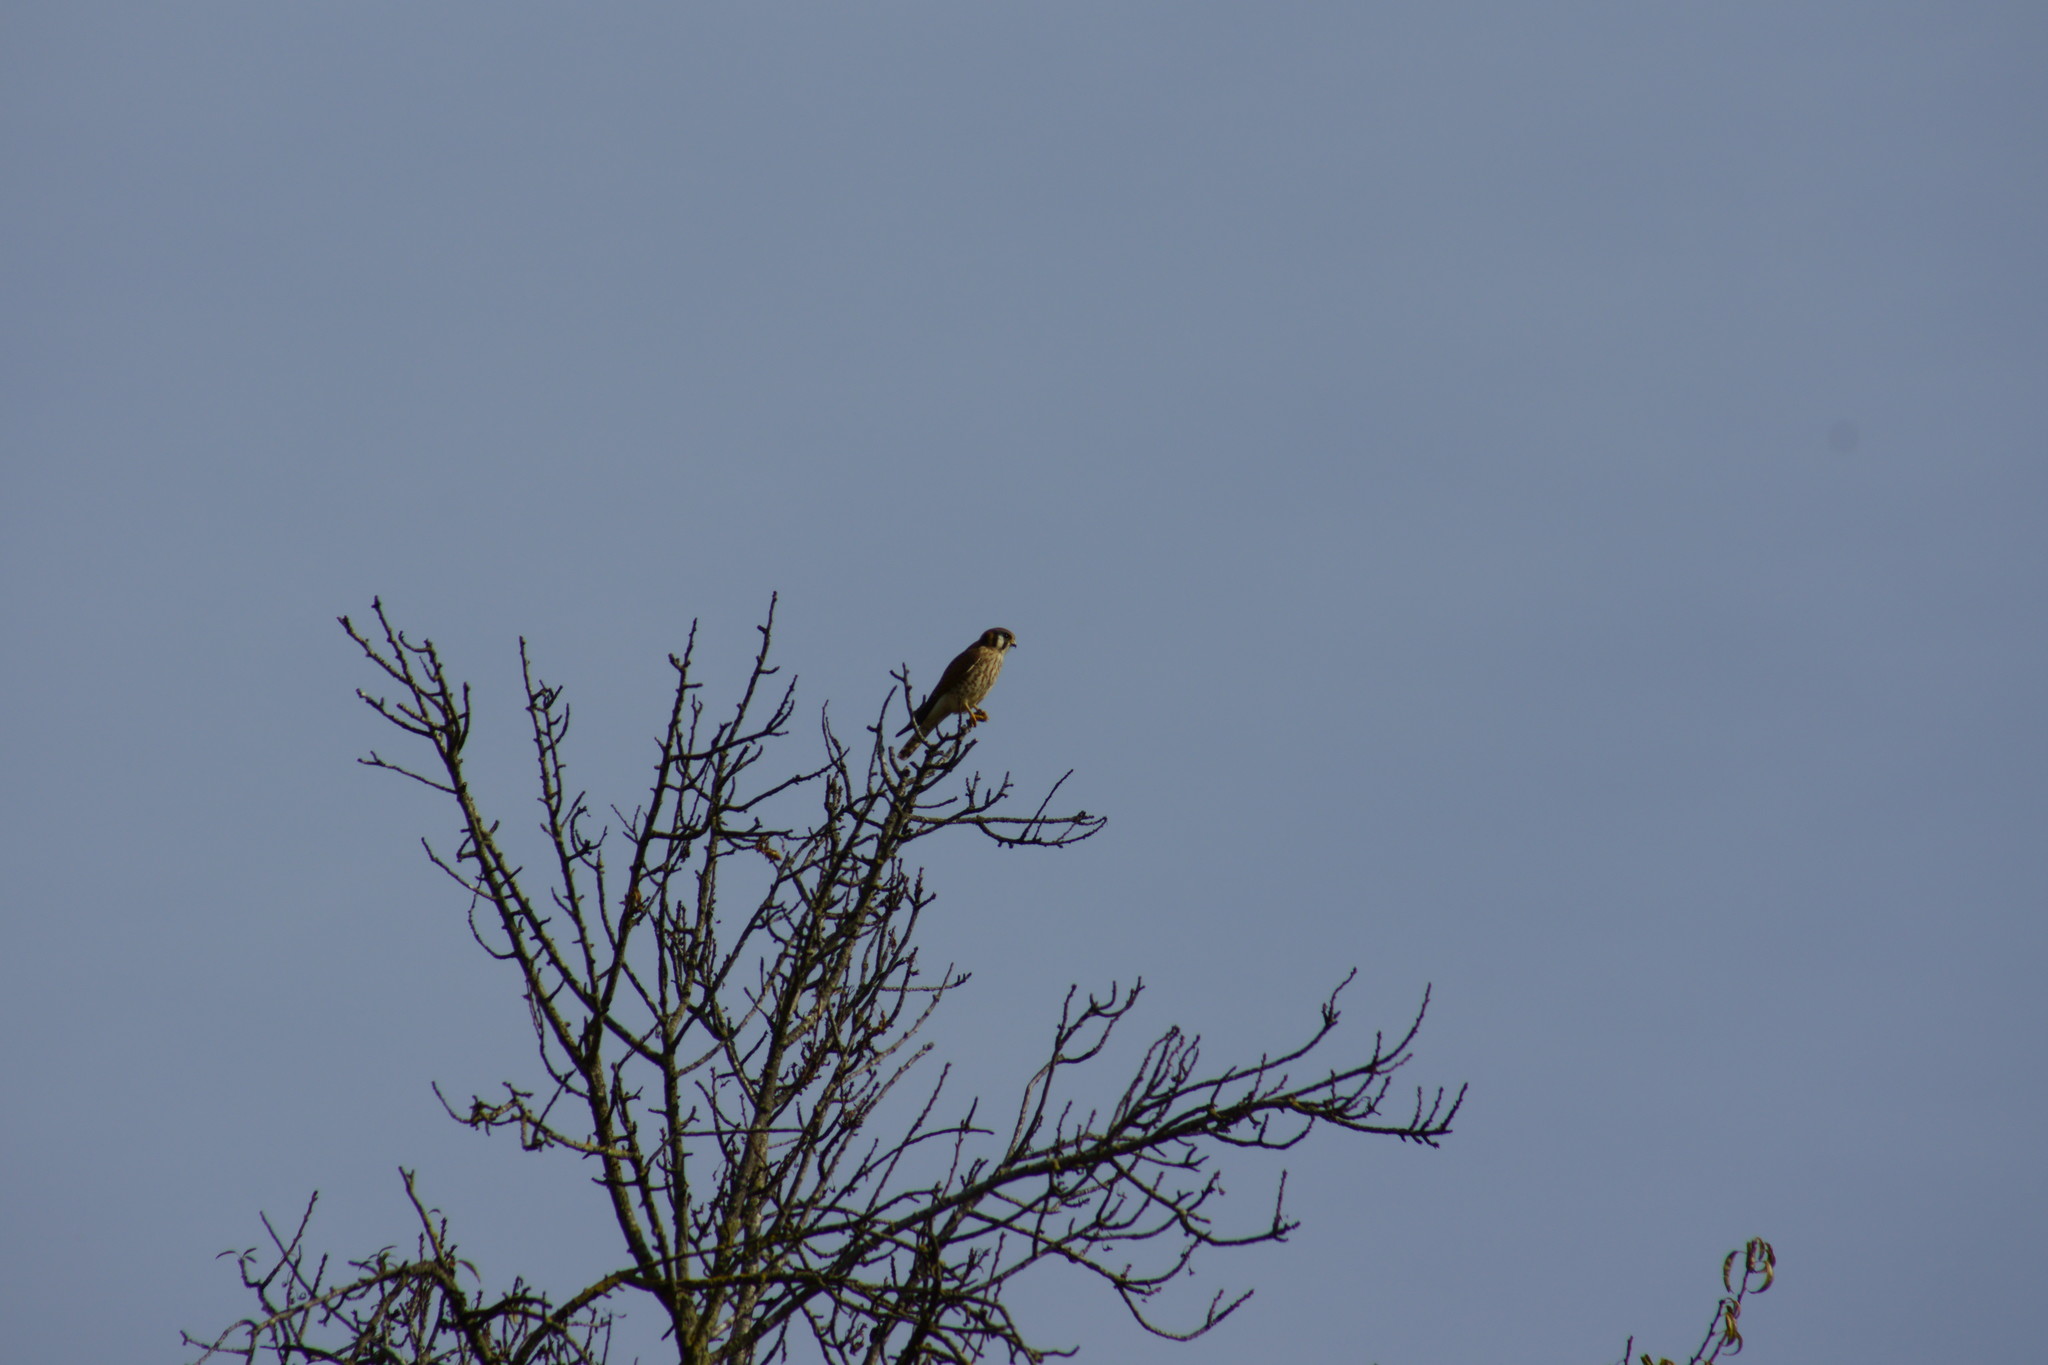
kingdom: Animalia
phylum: Chordata
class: Aves
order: Falconiformes
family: Falconidae
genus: Falco
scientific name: Falco sparverius
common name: American kestrel
